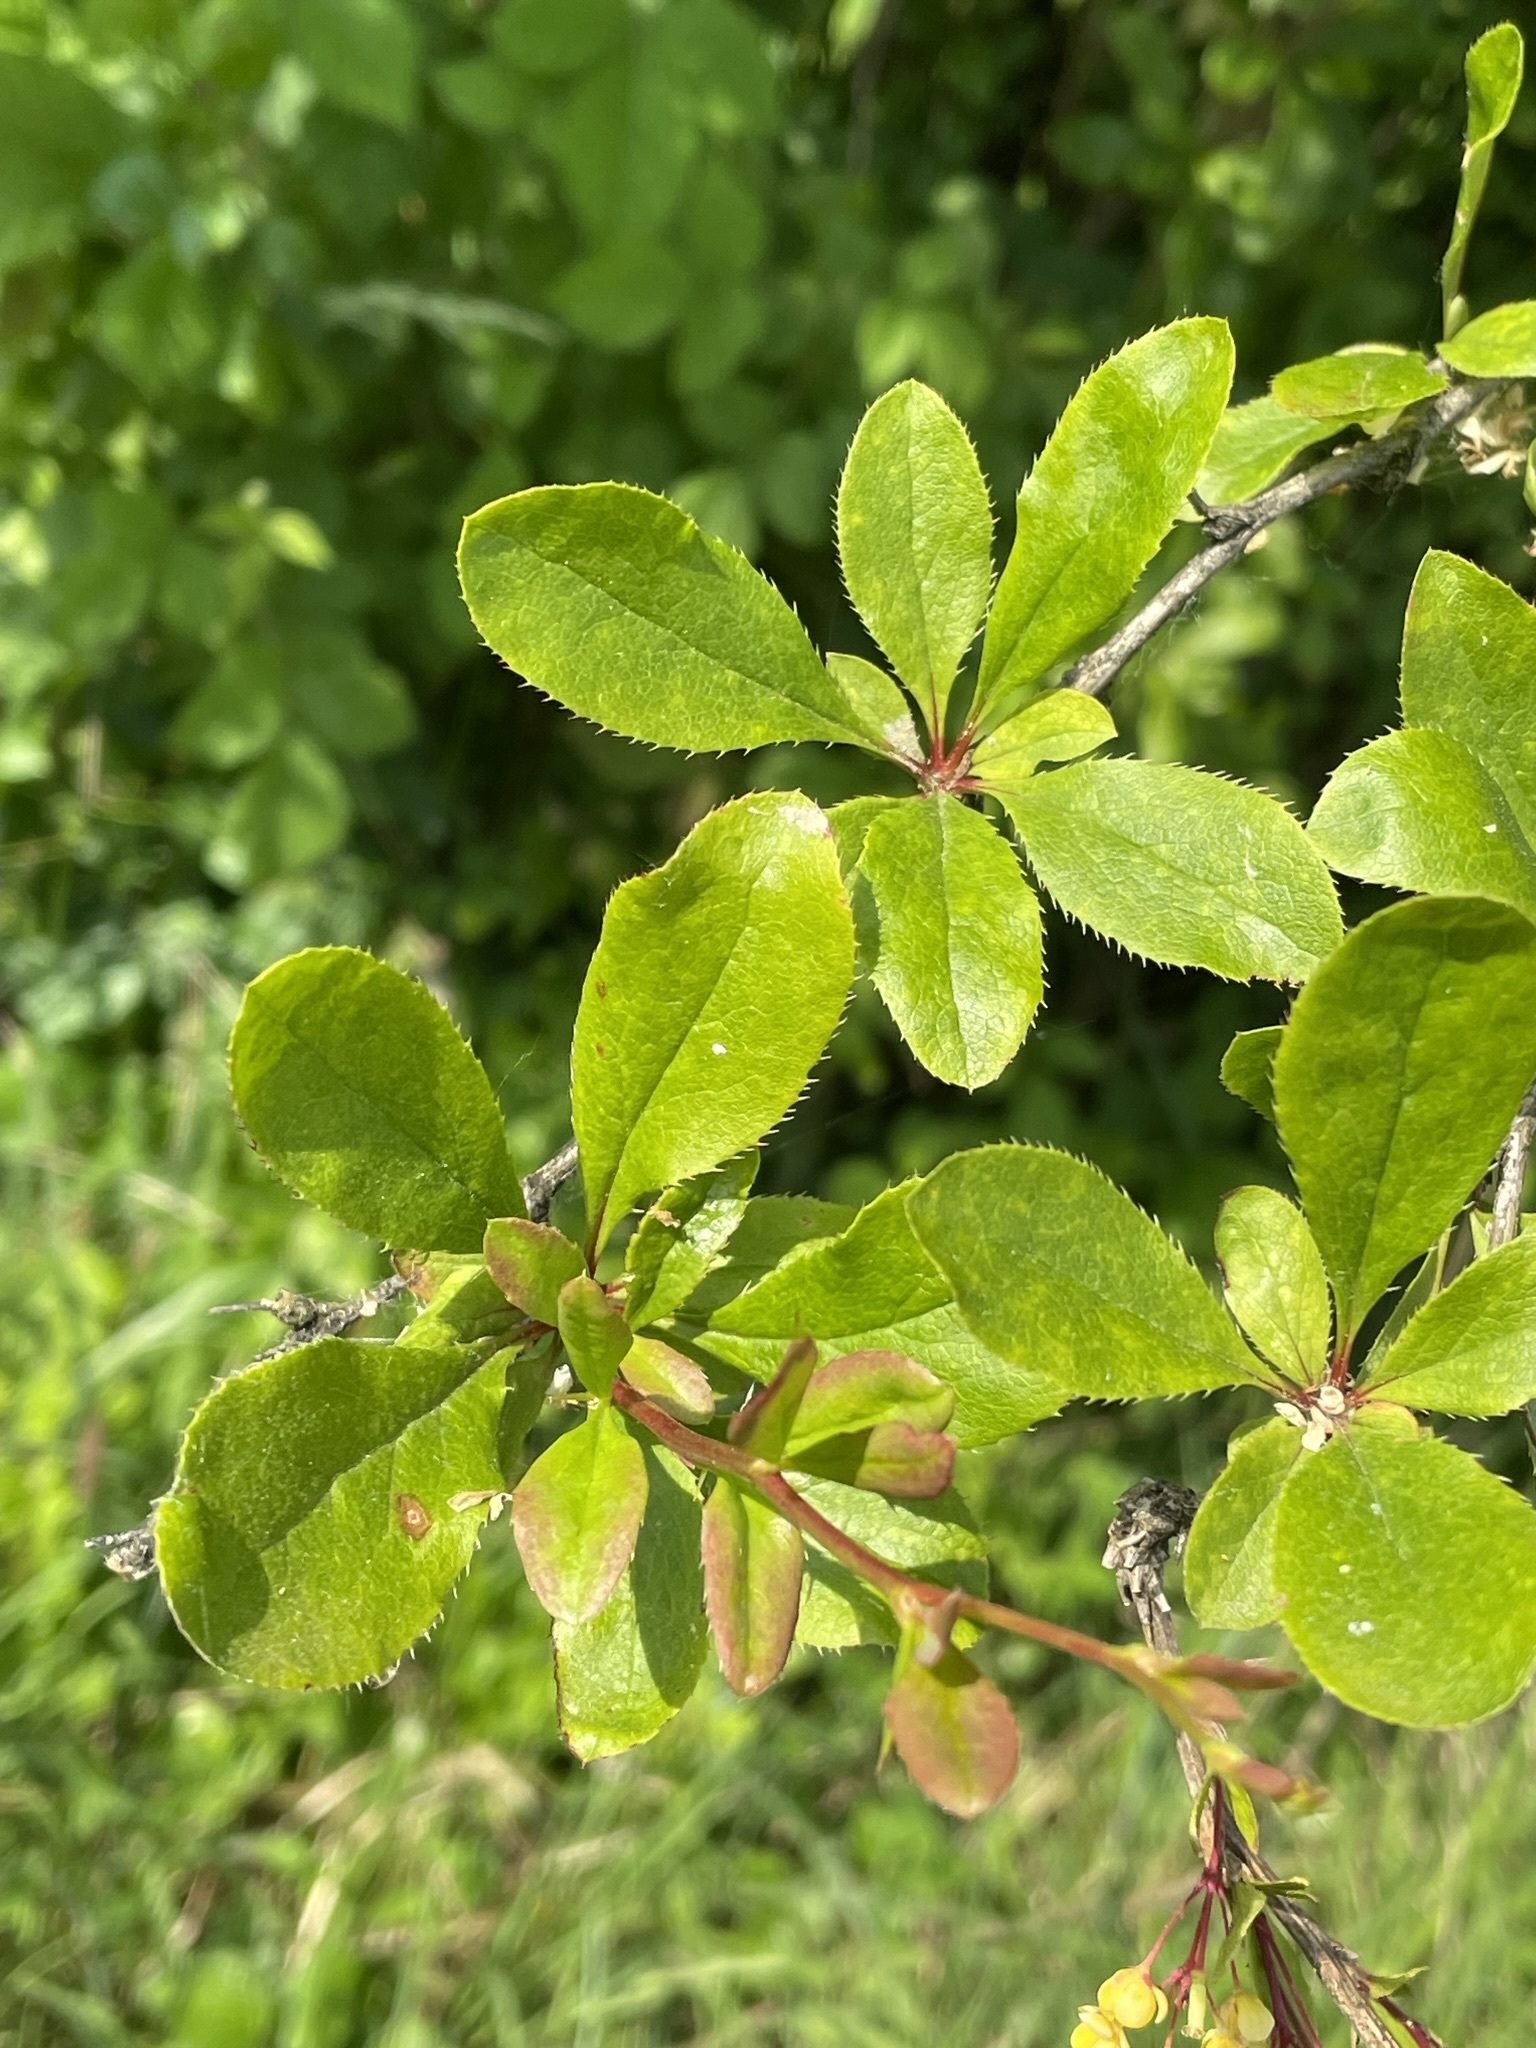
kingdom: Plantae
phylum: Tracheophyta
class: Magnoliopsida
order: Ranunculales
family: Berberidaceae
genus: Berberis
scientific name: Berberis vulgaris
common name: Barberry
